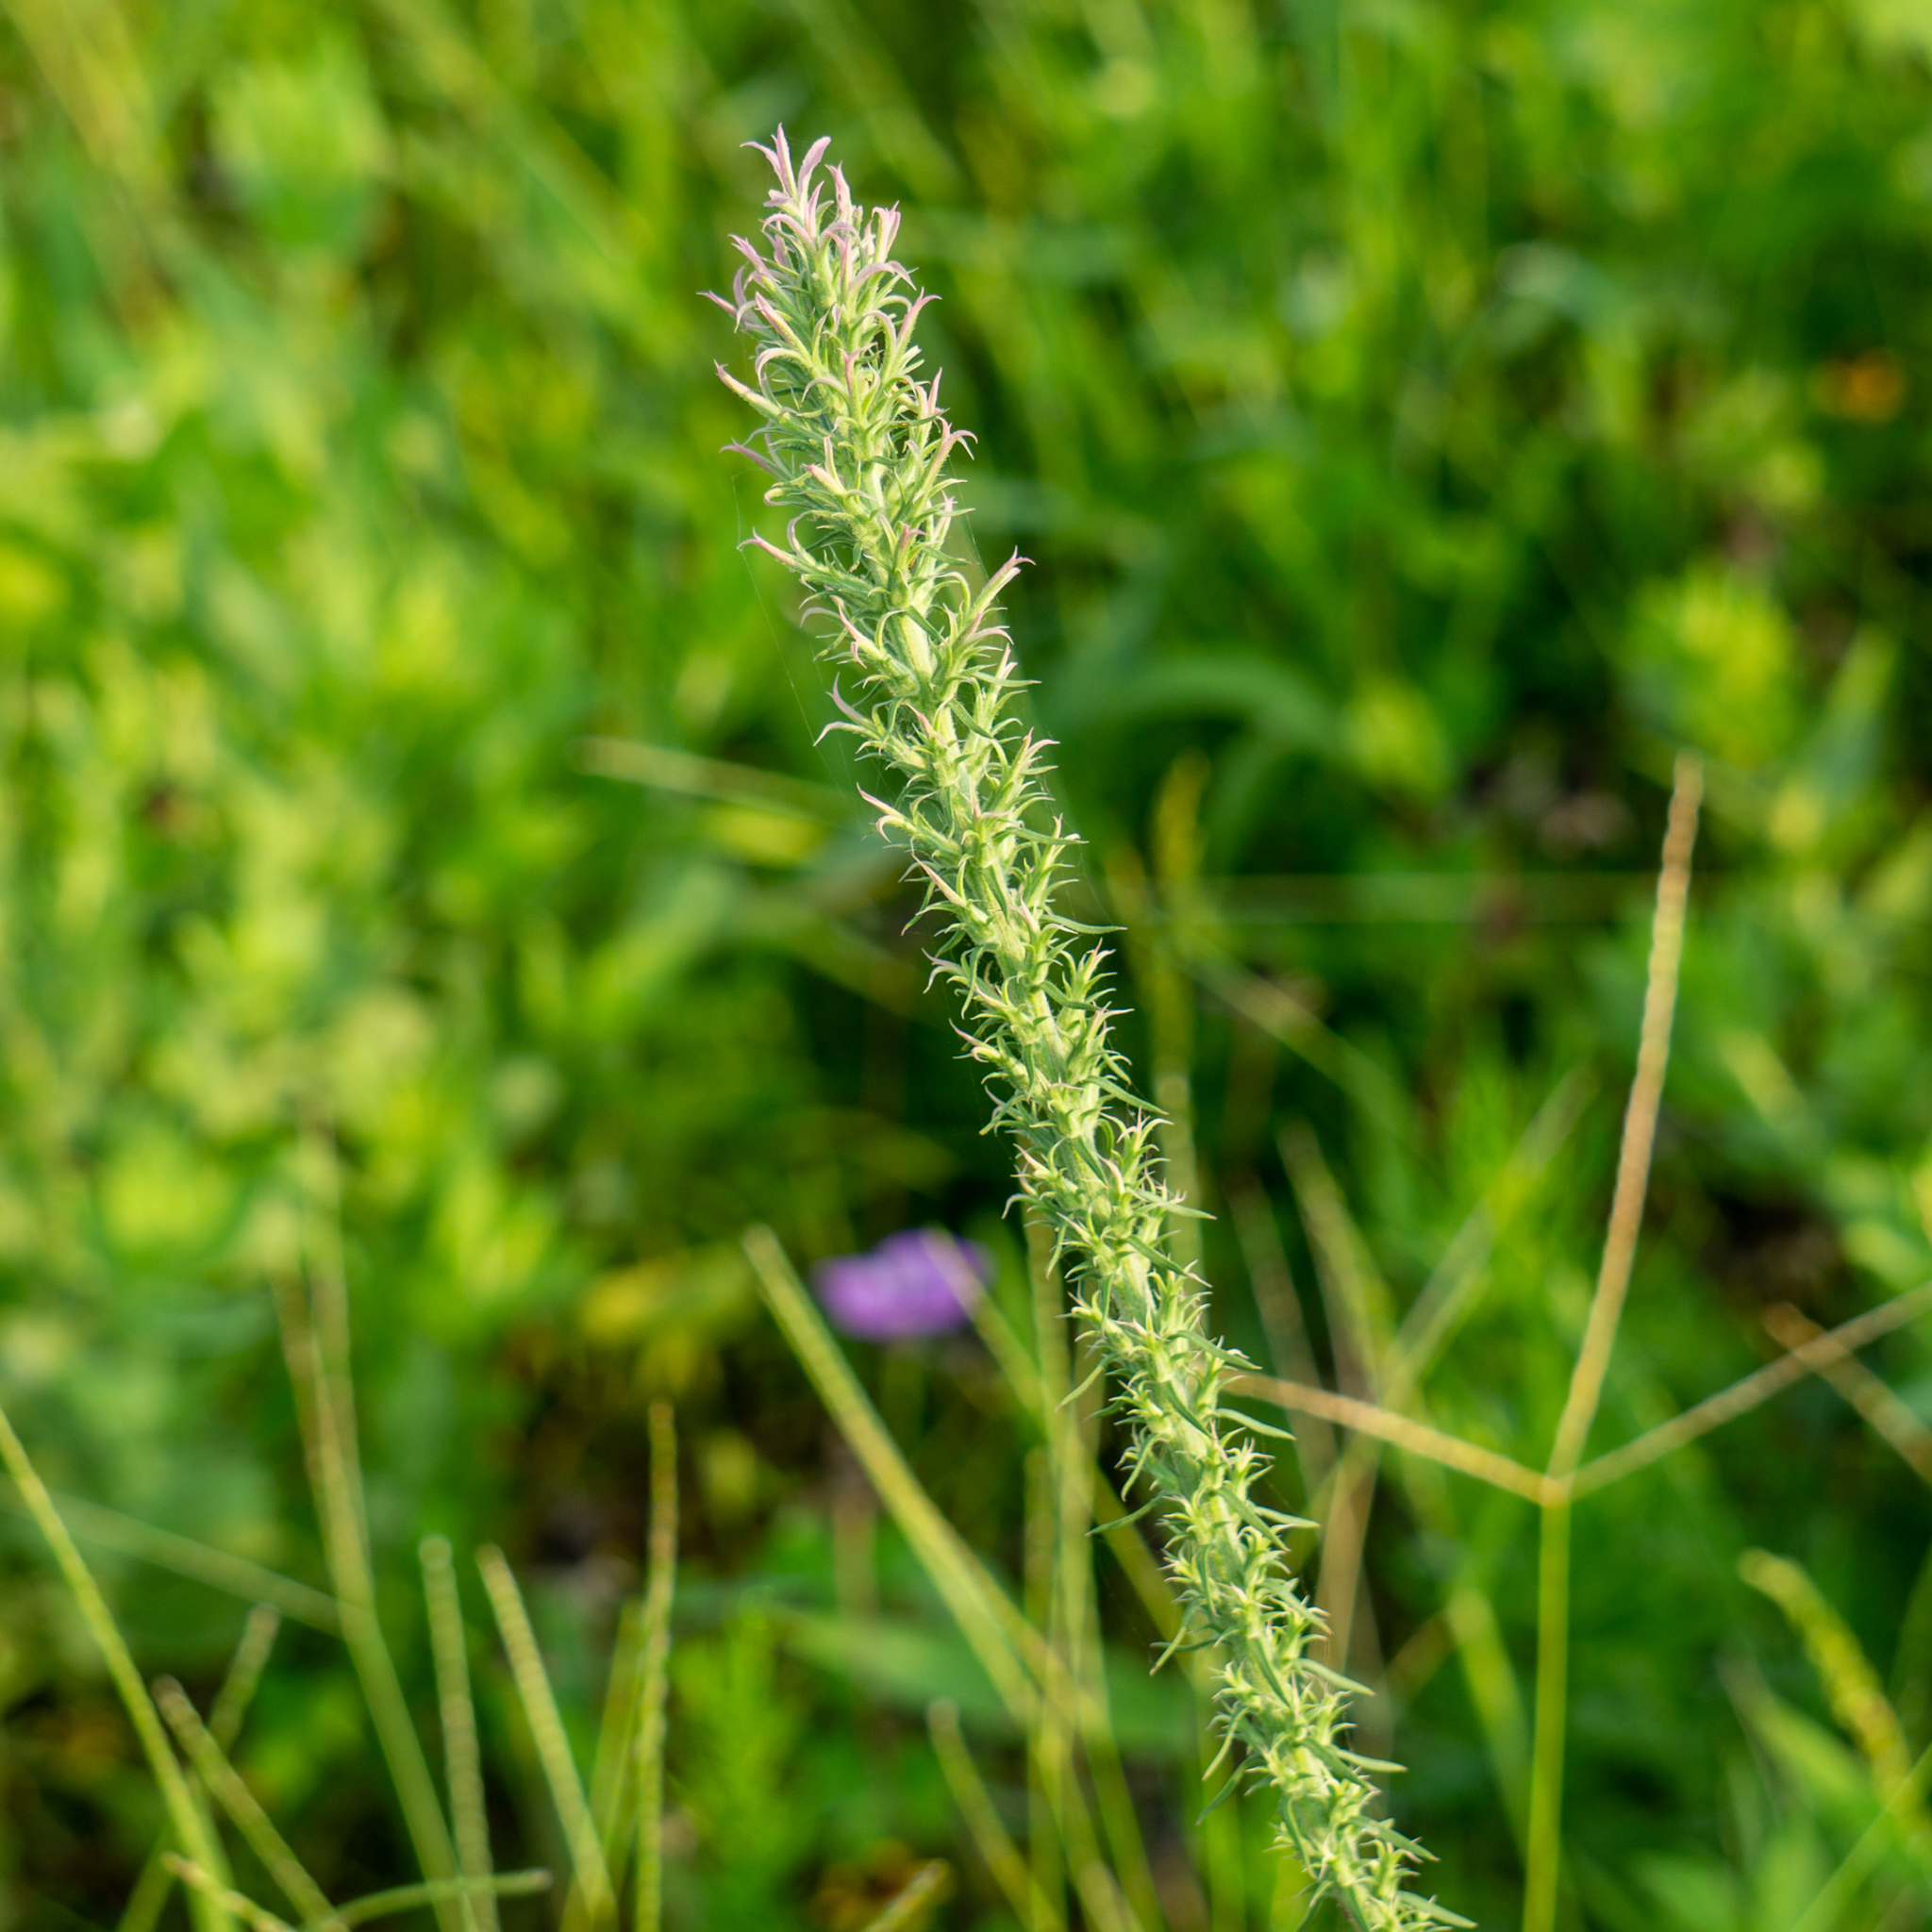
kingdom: Plantae
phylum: Tracheophyta
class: Magnoliopsida
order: Asterales
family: Asteraceae
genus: Liatris
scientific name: Liatris carizzana
